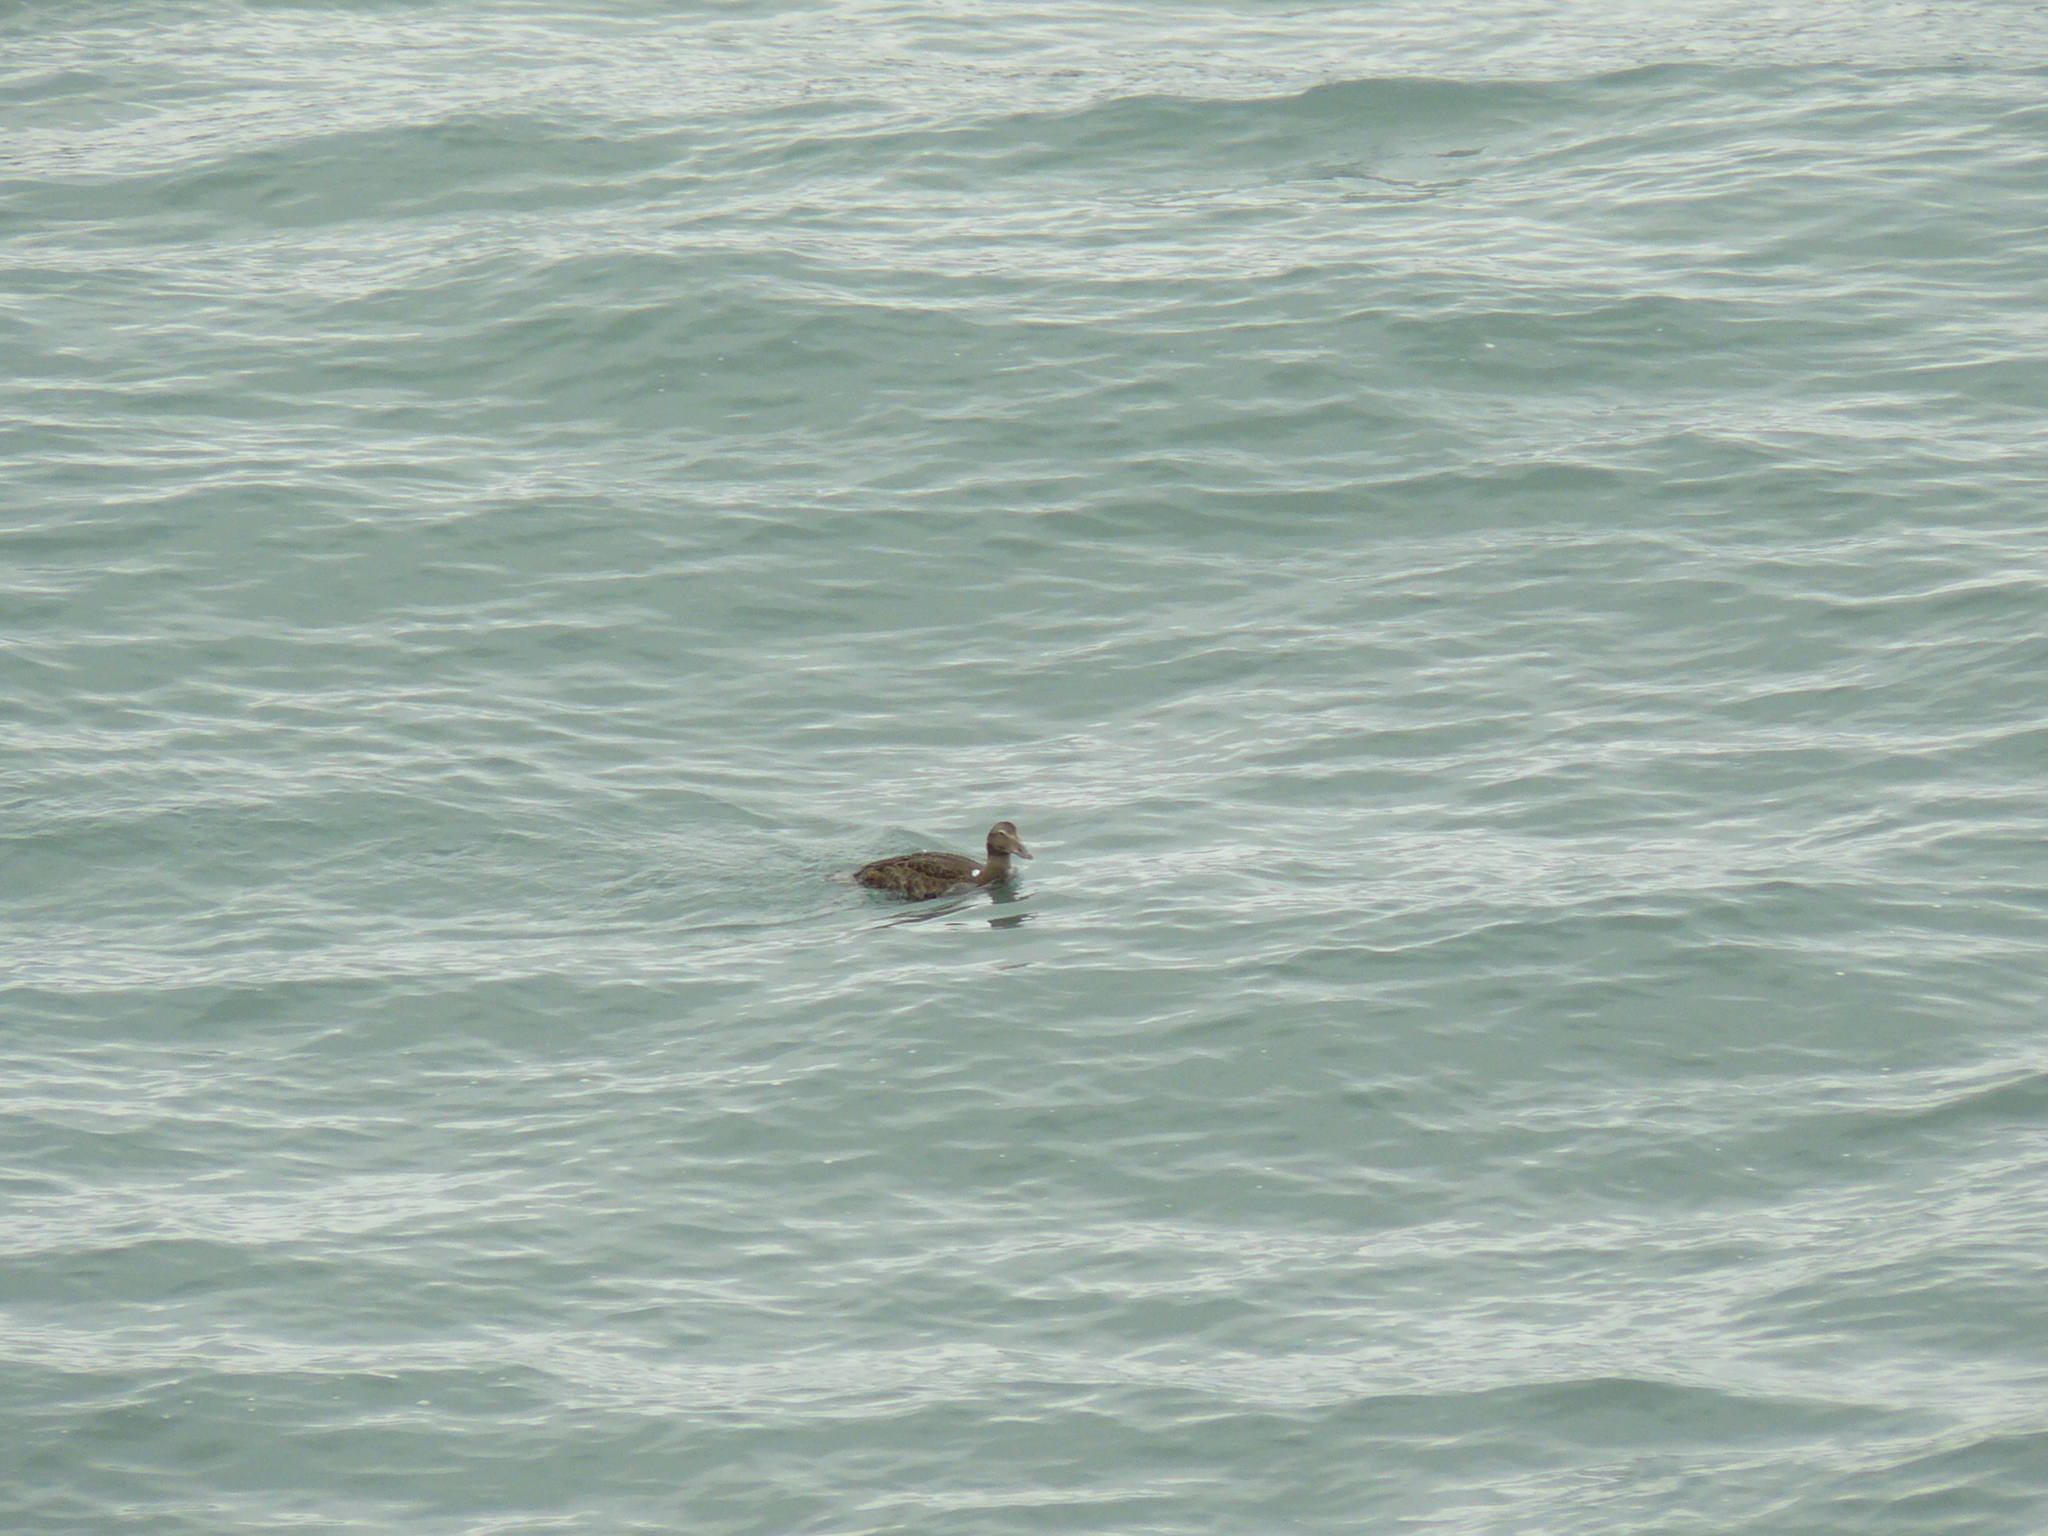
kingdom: Animalia
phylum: Chordata
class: Aves
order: Anseriformes
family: Anatidae
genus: Somateria
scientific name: Somateria mollissima
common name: Common eider
